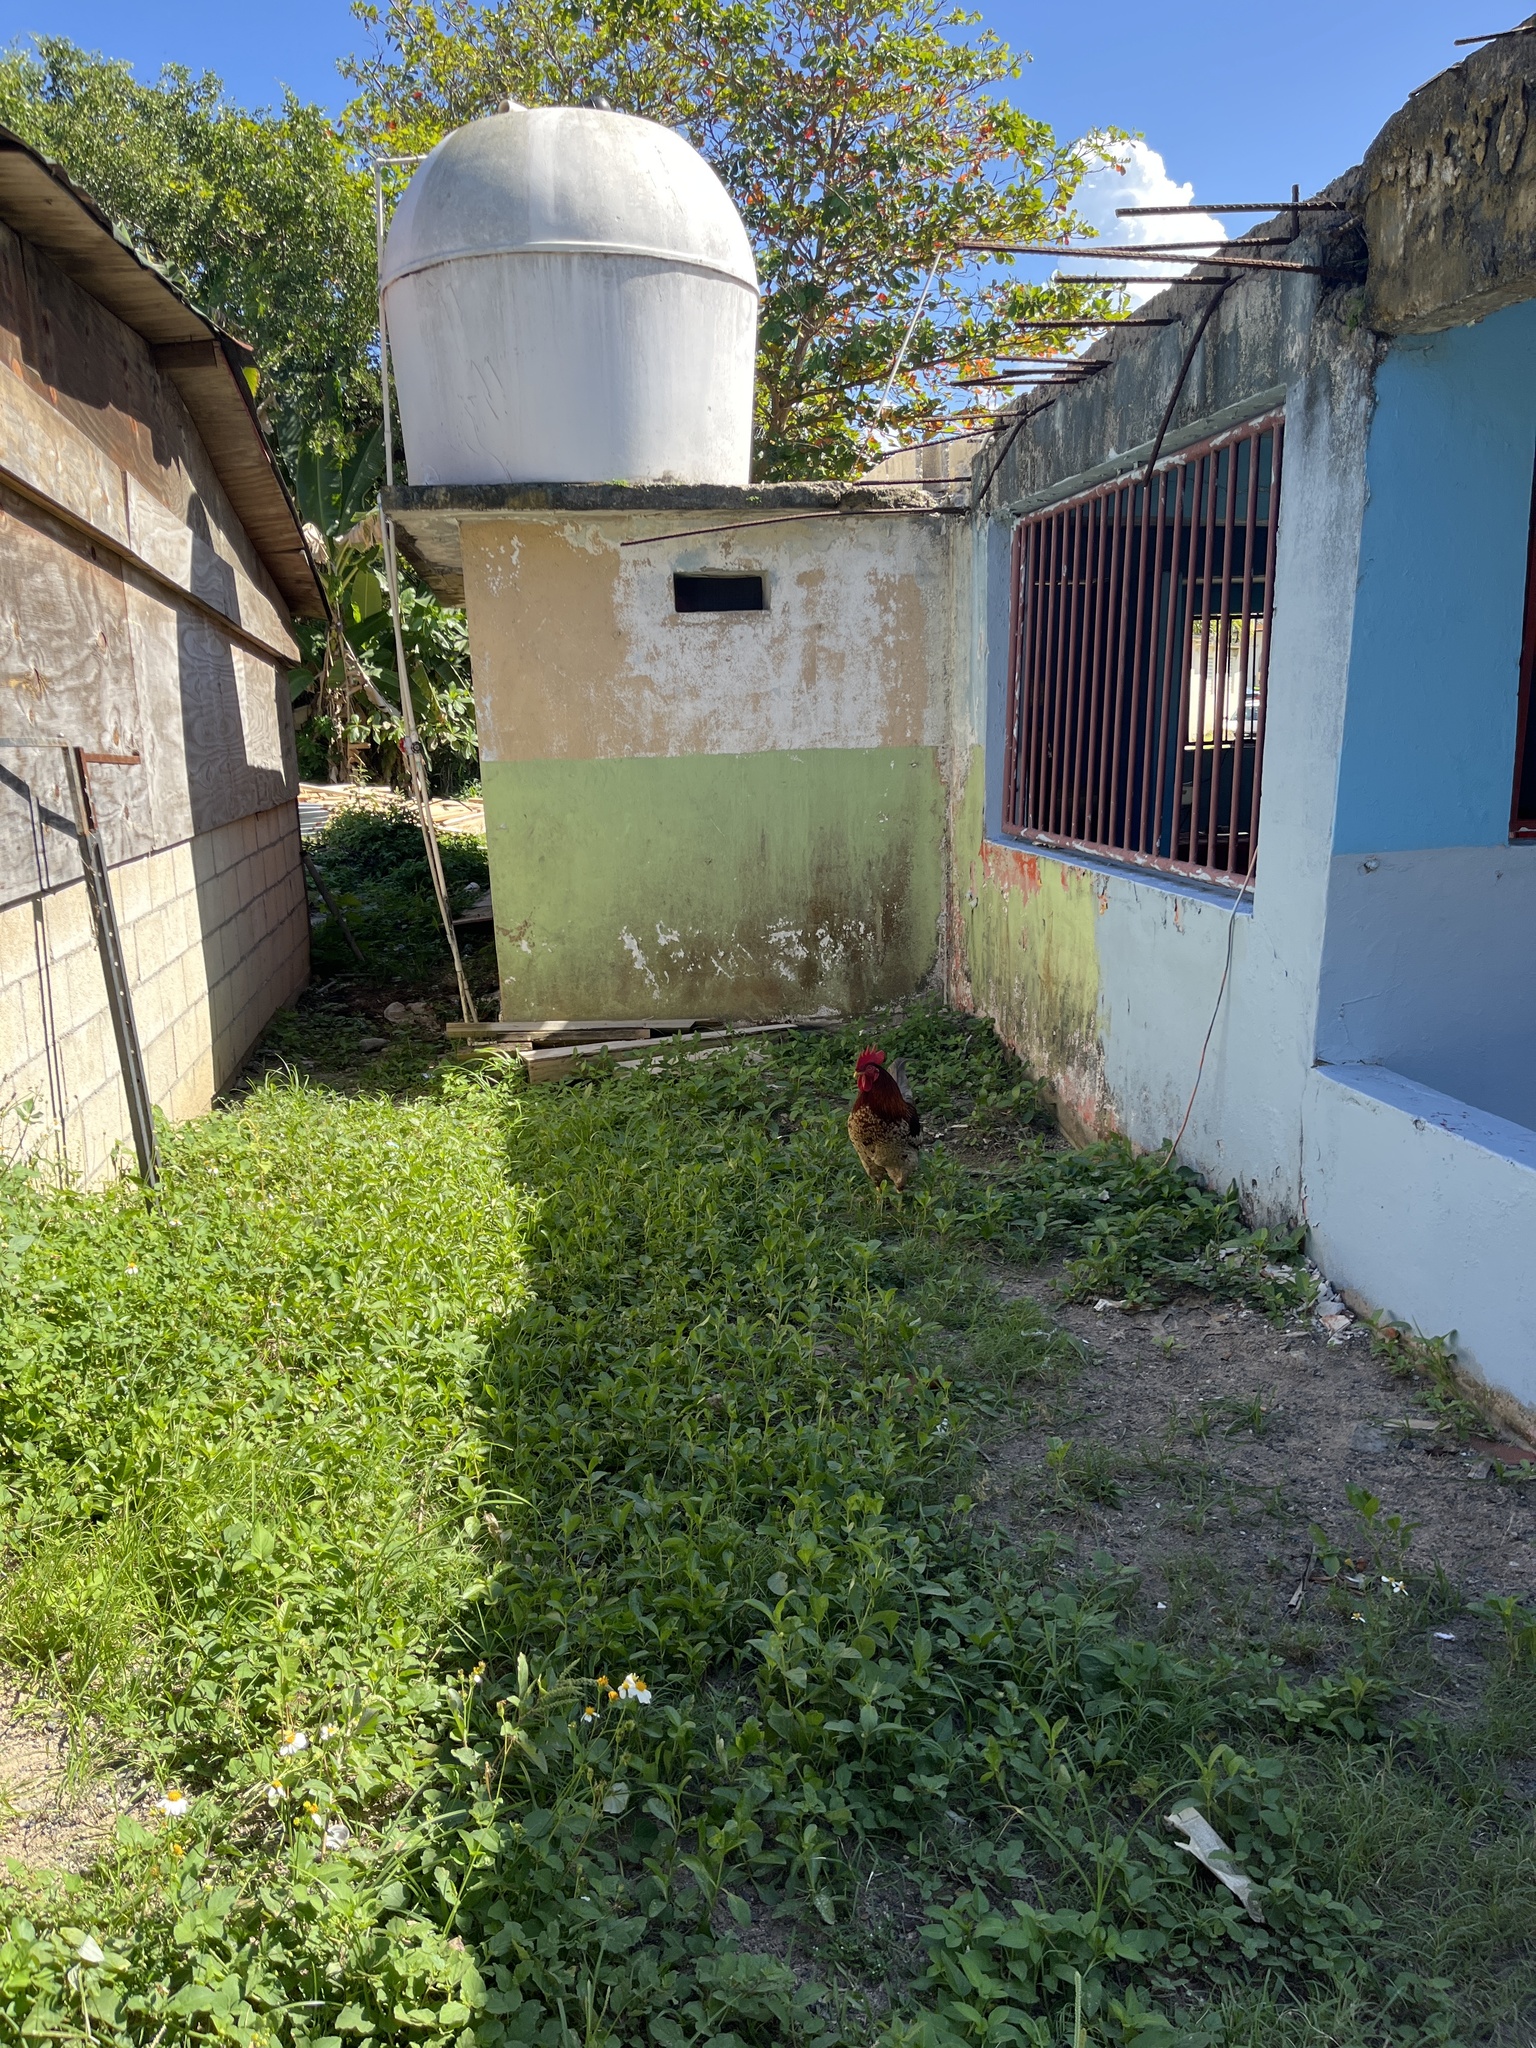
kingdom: Animalia
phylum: Chordata
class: Aves
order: Galliformes
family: Phasianidae
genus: Gallus
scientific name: Gallus gallus
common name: Red junglefowl
